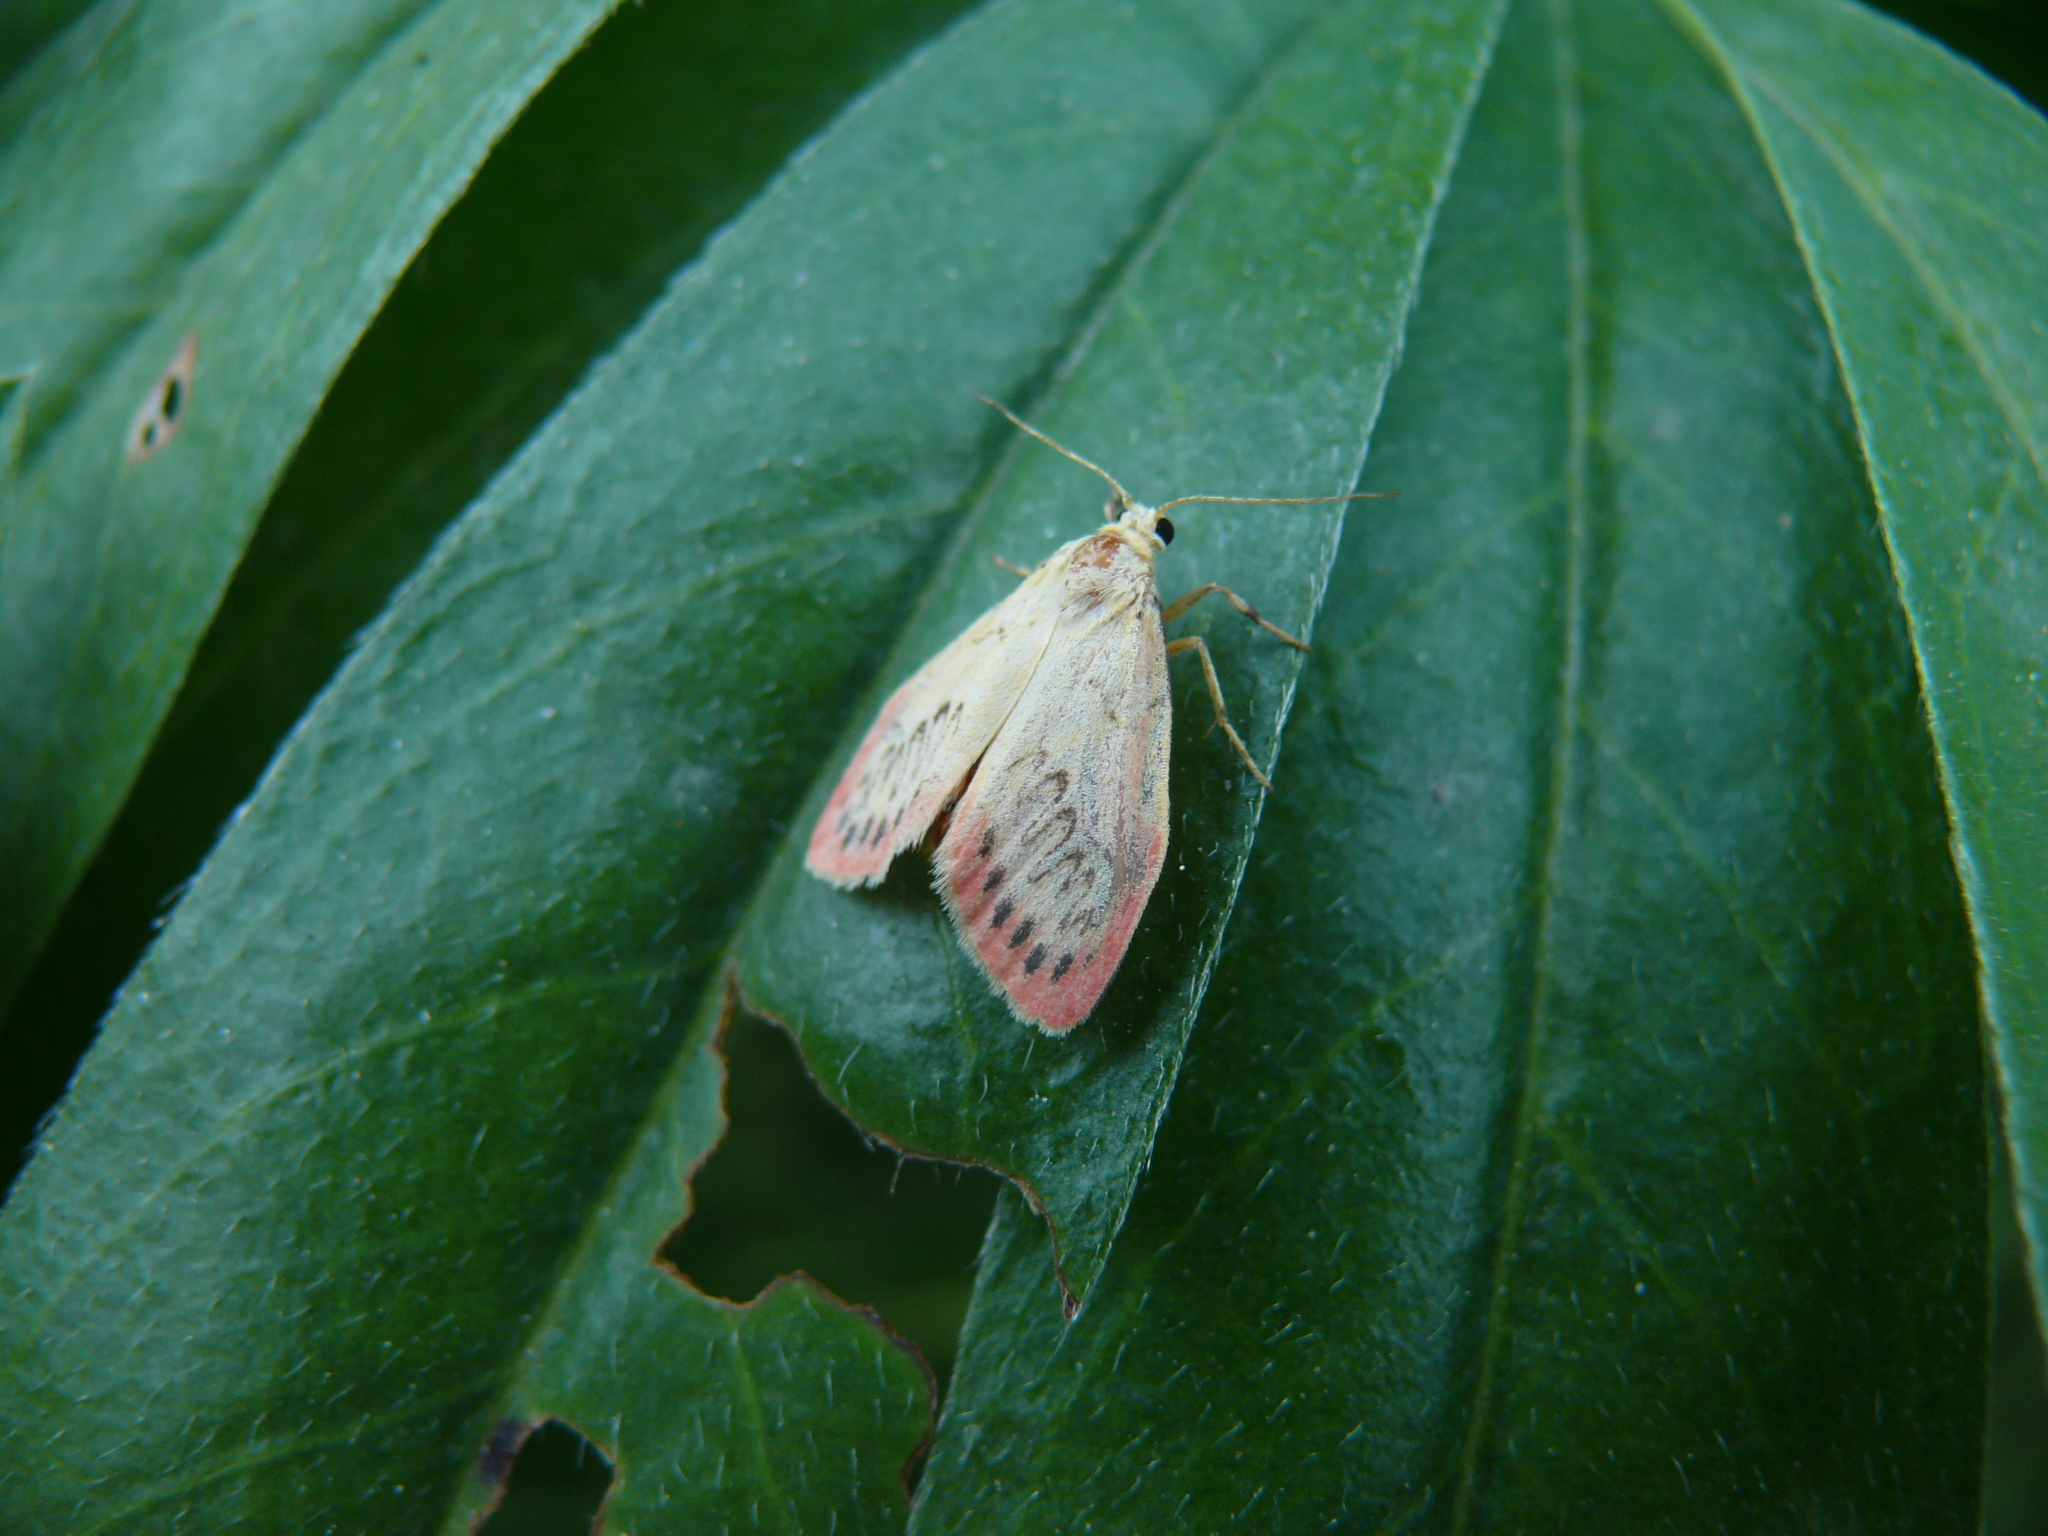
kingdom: Animalia
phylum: Arthropoda
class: Insecta
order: Lepidoptera
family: Erebidae
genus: Miltochrista
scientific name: Miltochrista miniata
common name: Rosy footman
